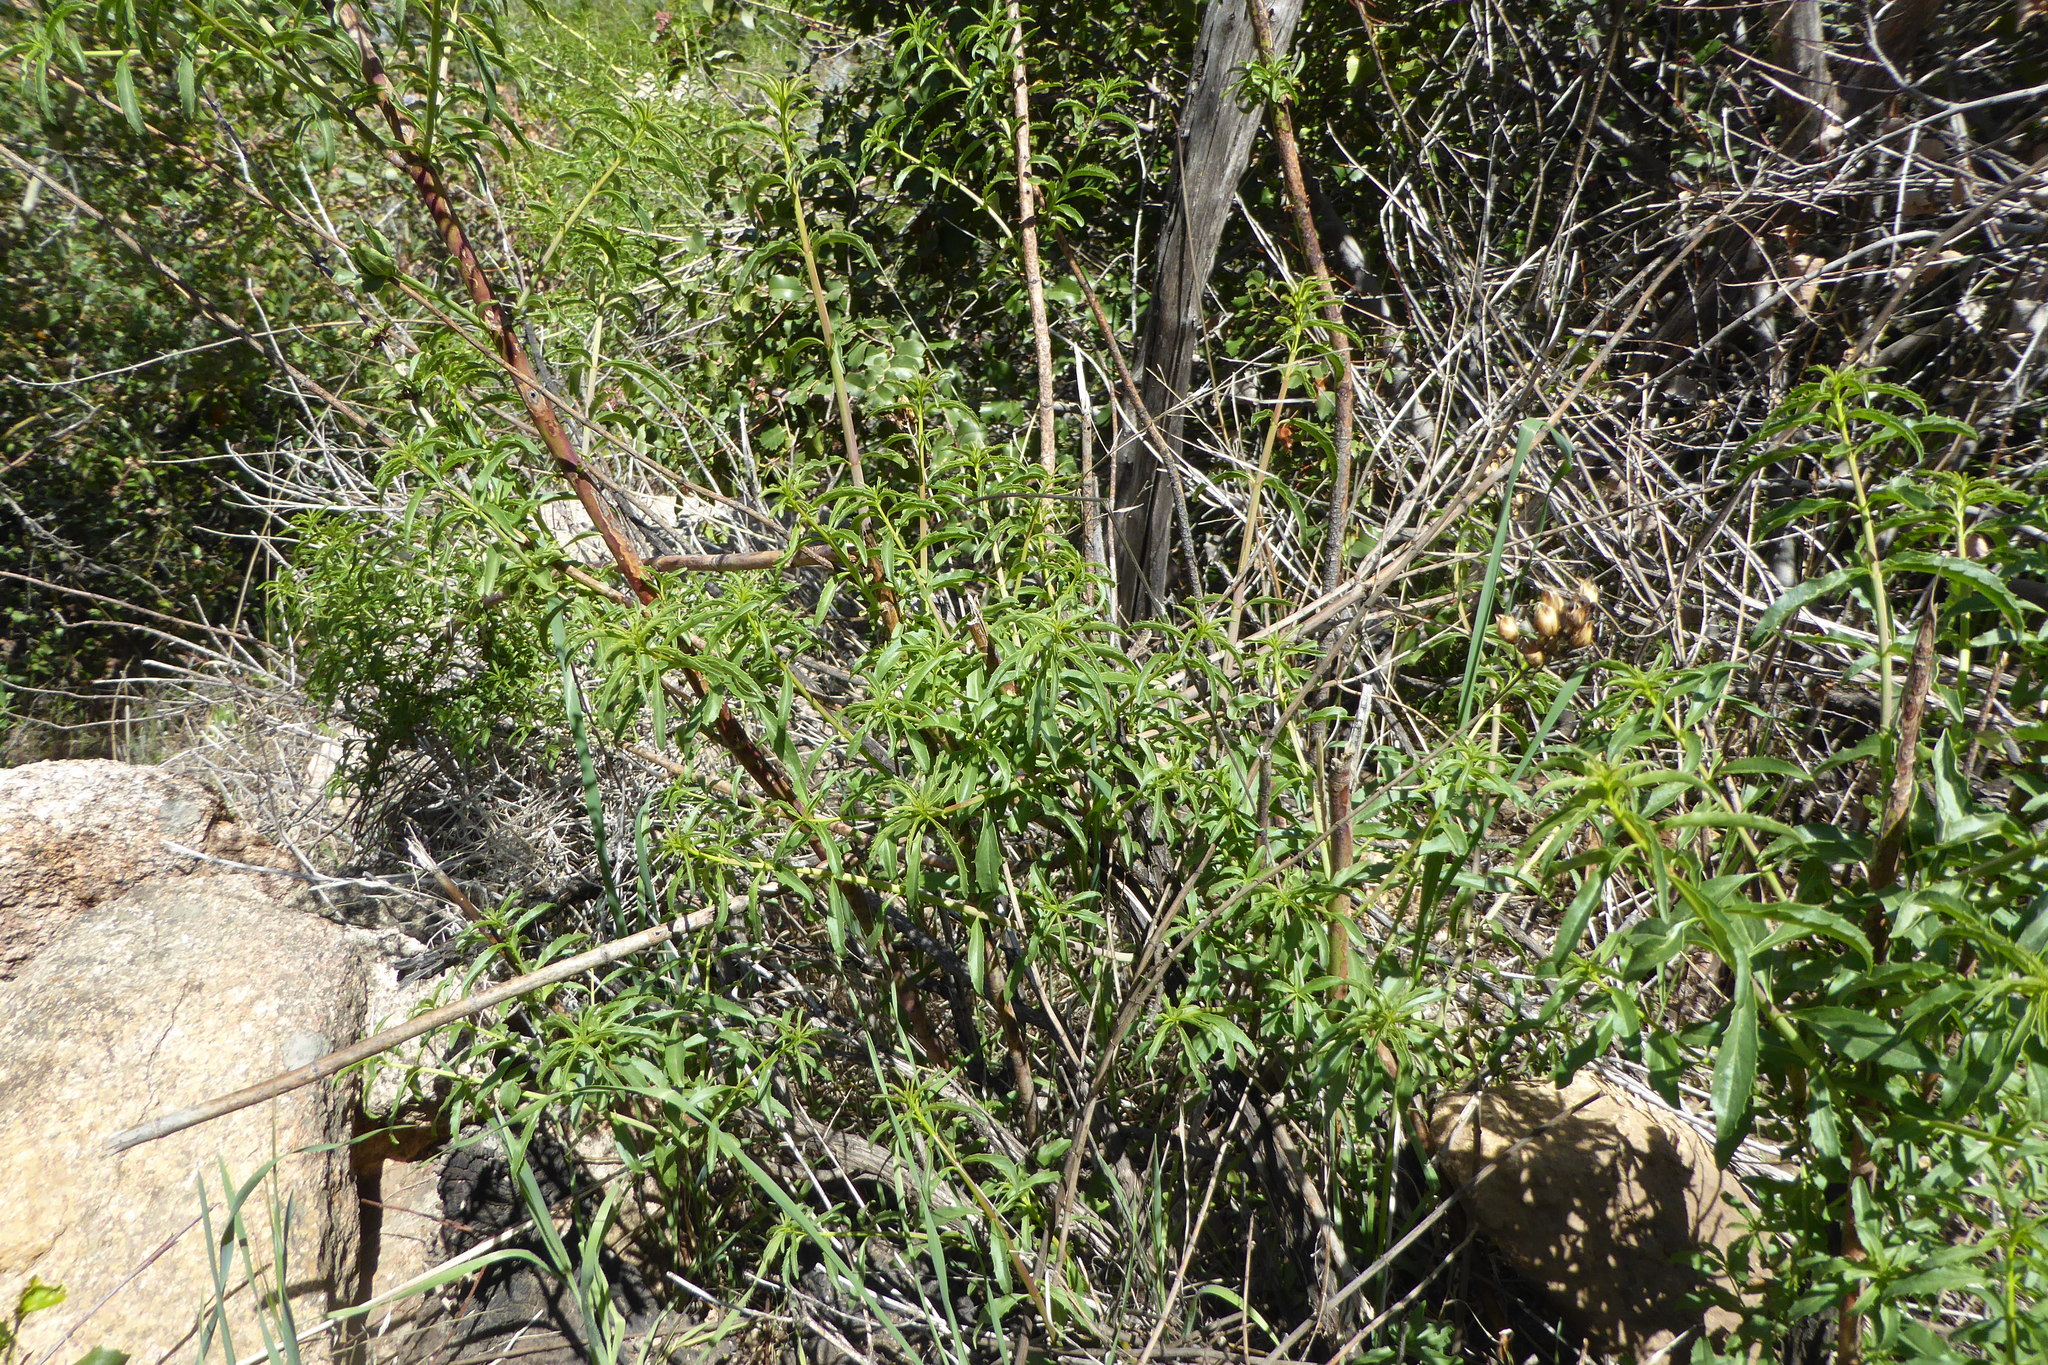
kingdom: Plantae
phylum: Tracheophyta
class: Magnoliopsida
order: Lamiales
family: Plantaginaceae
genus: Keckiella
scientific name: Keckiella ternata
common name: Scarlet keckiella
